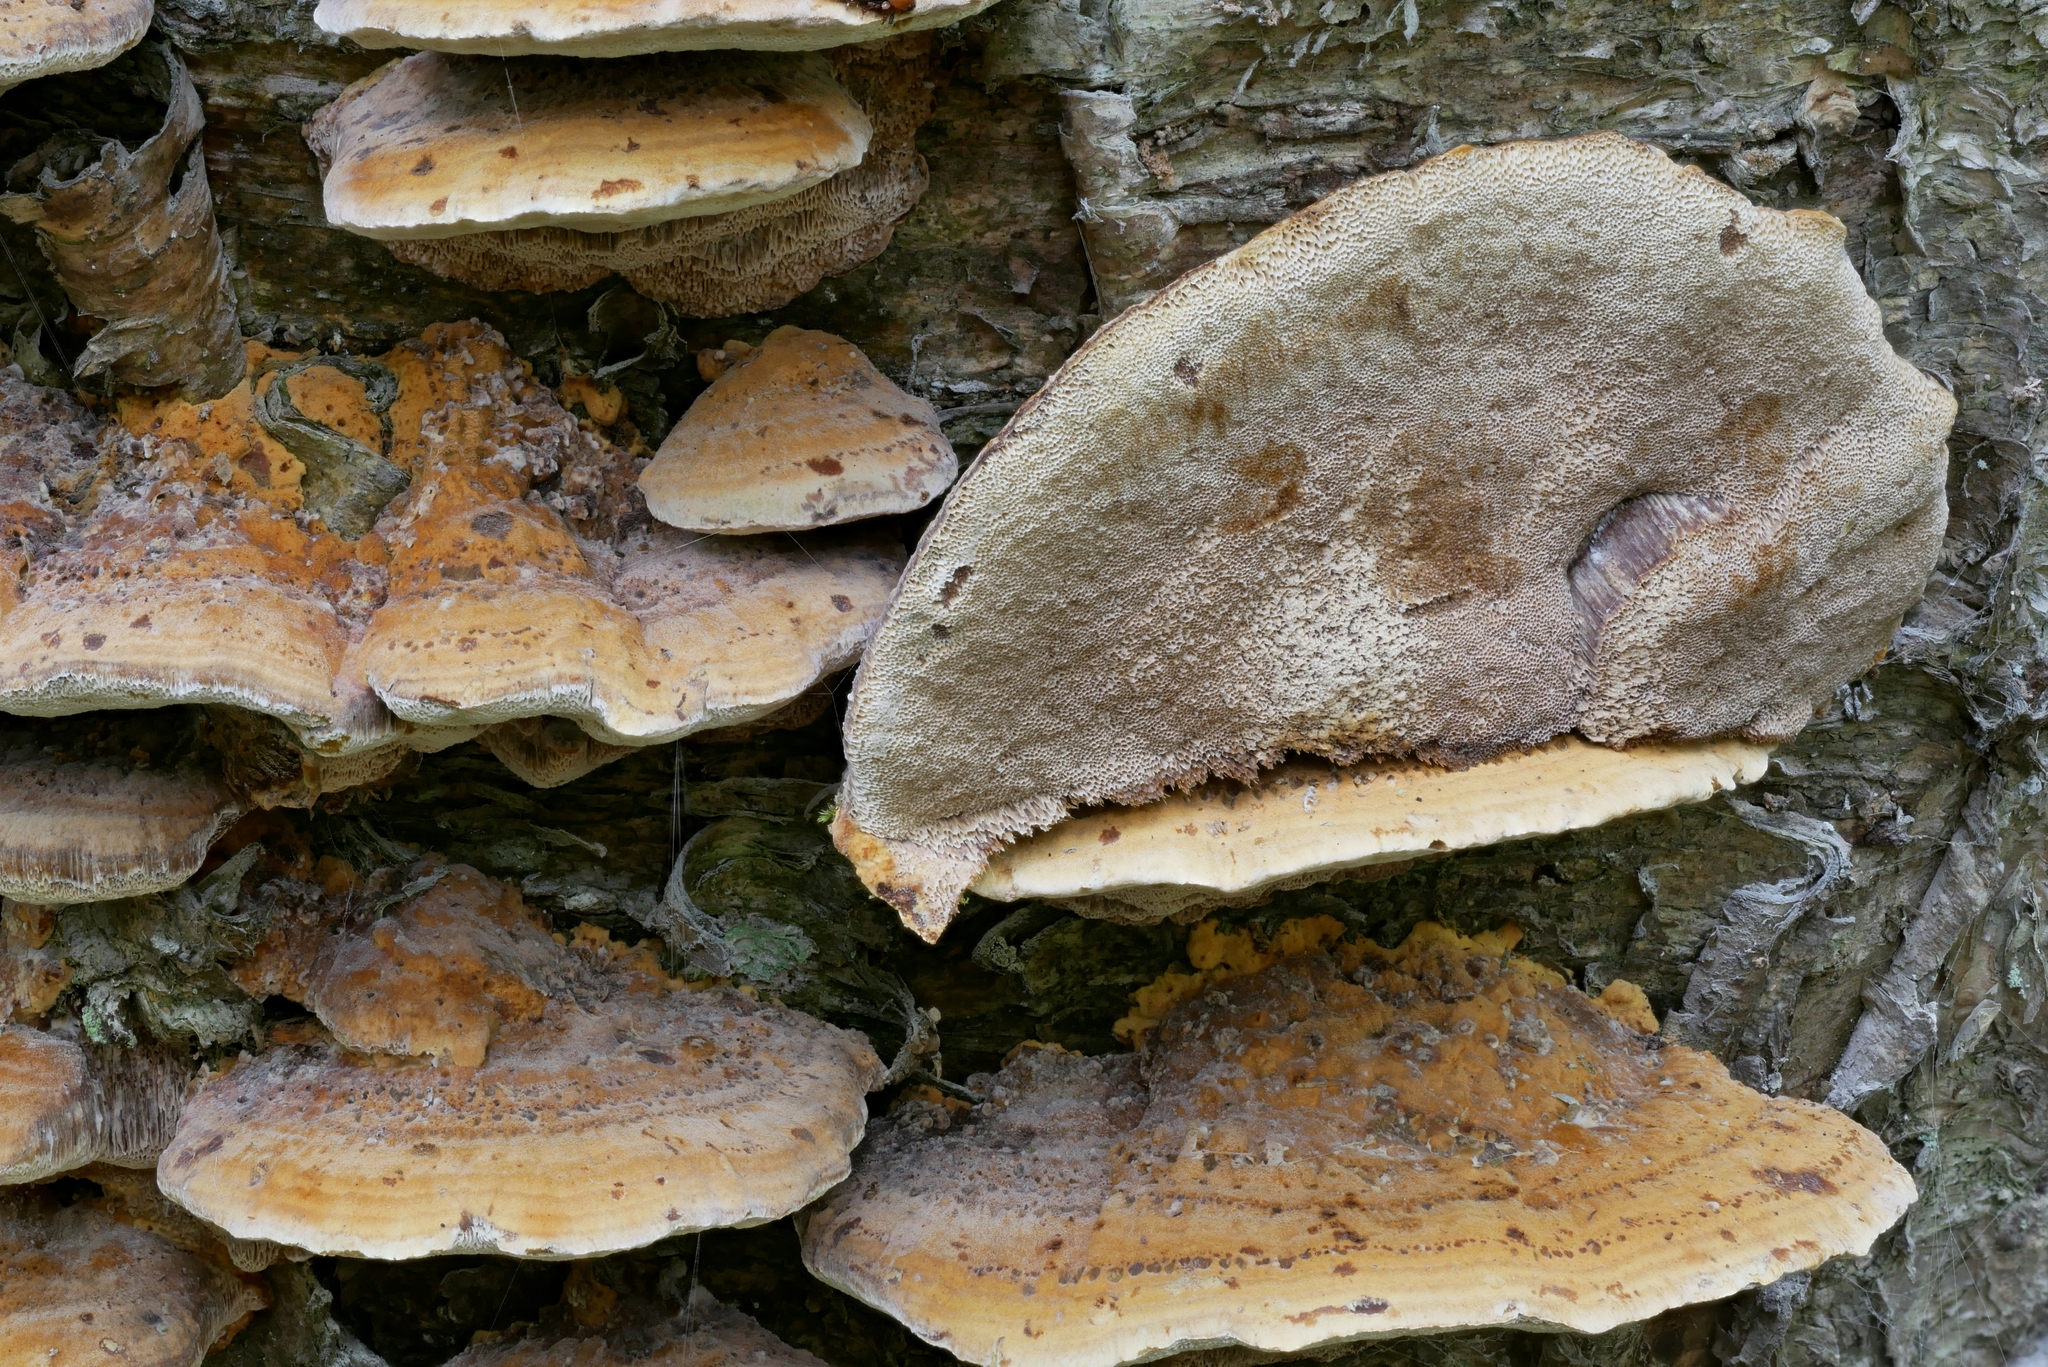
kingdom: Fungi
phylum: Basidiomycota
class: Agaricomycetes
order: Hymenochaetales
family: Hymenochaetaceae
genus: Xanthoporia
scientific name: Xanthoporia radiata
